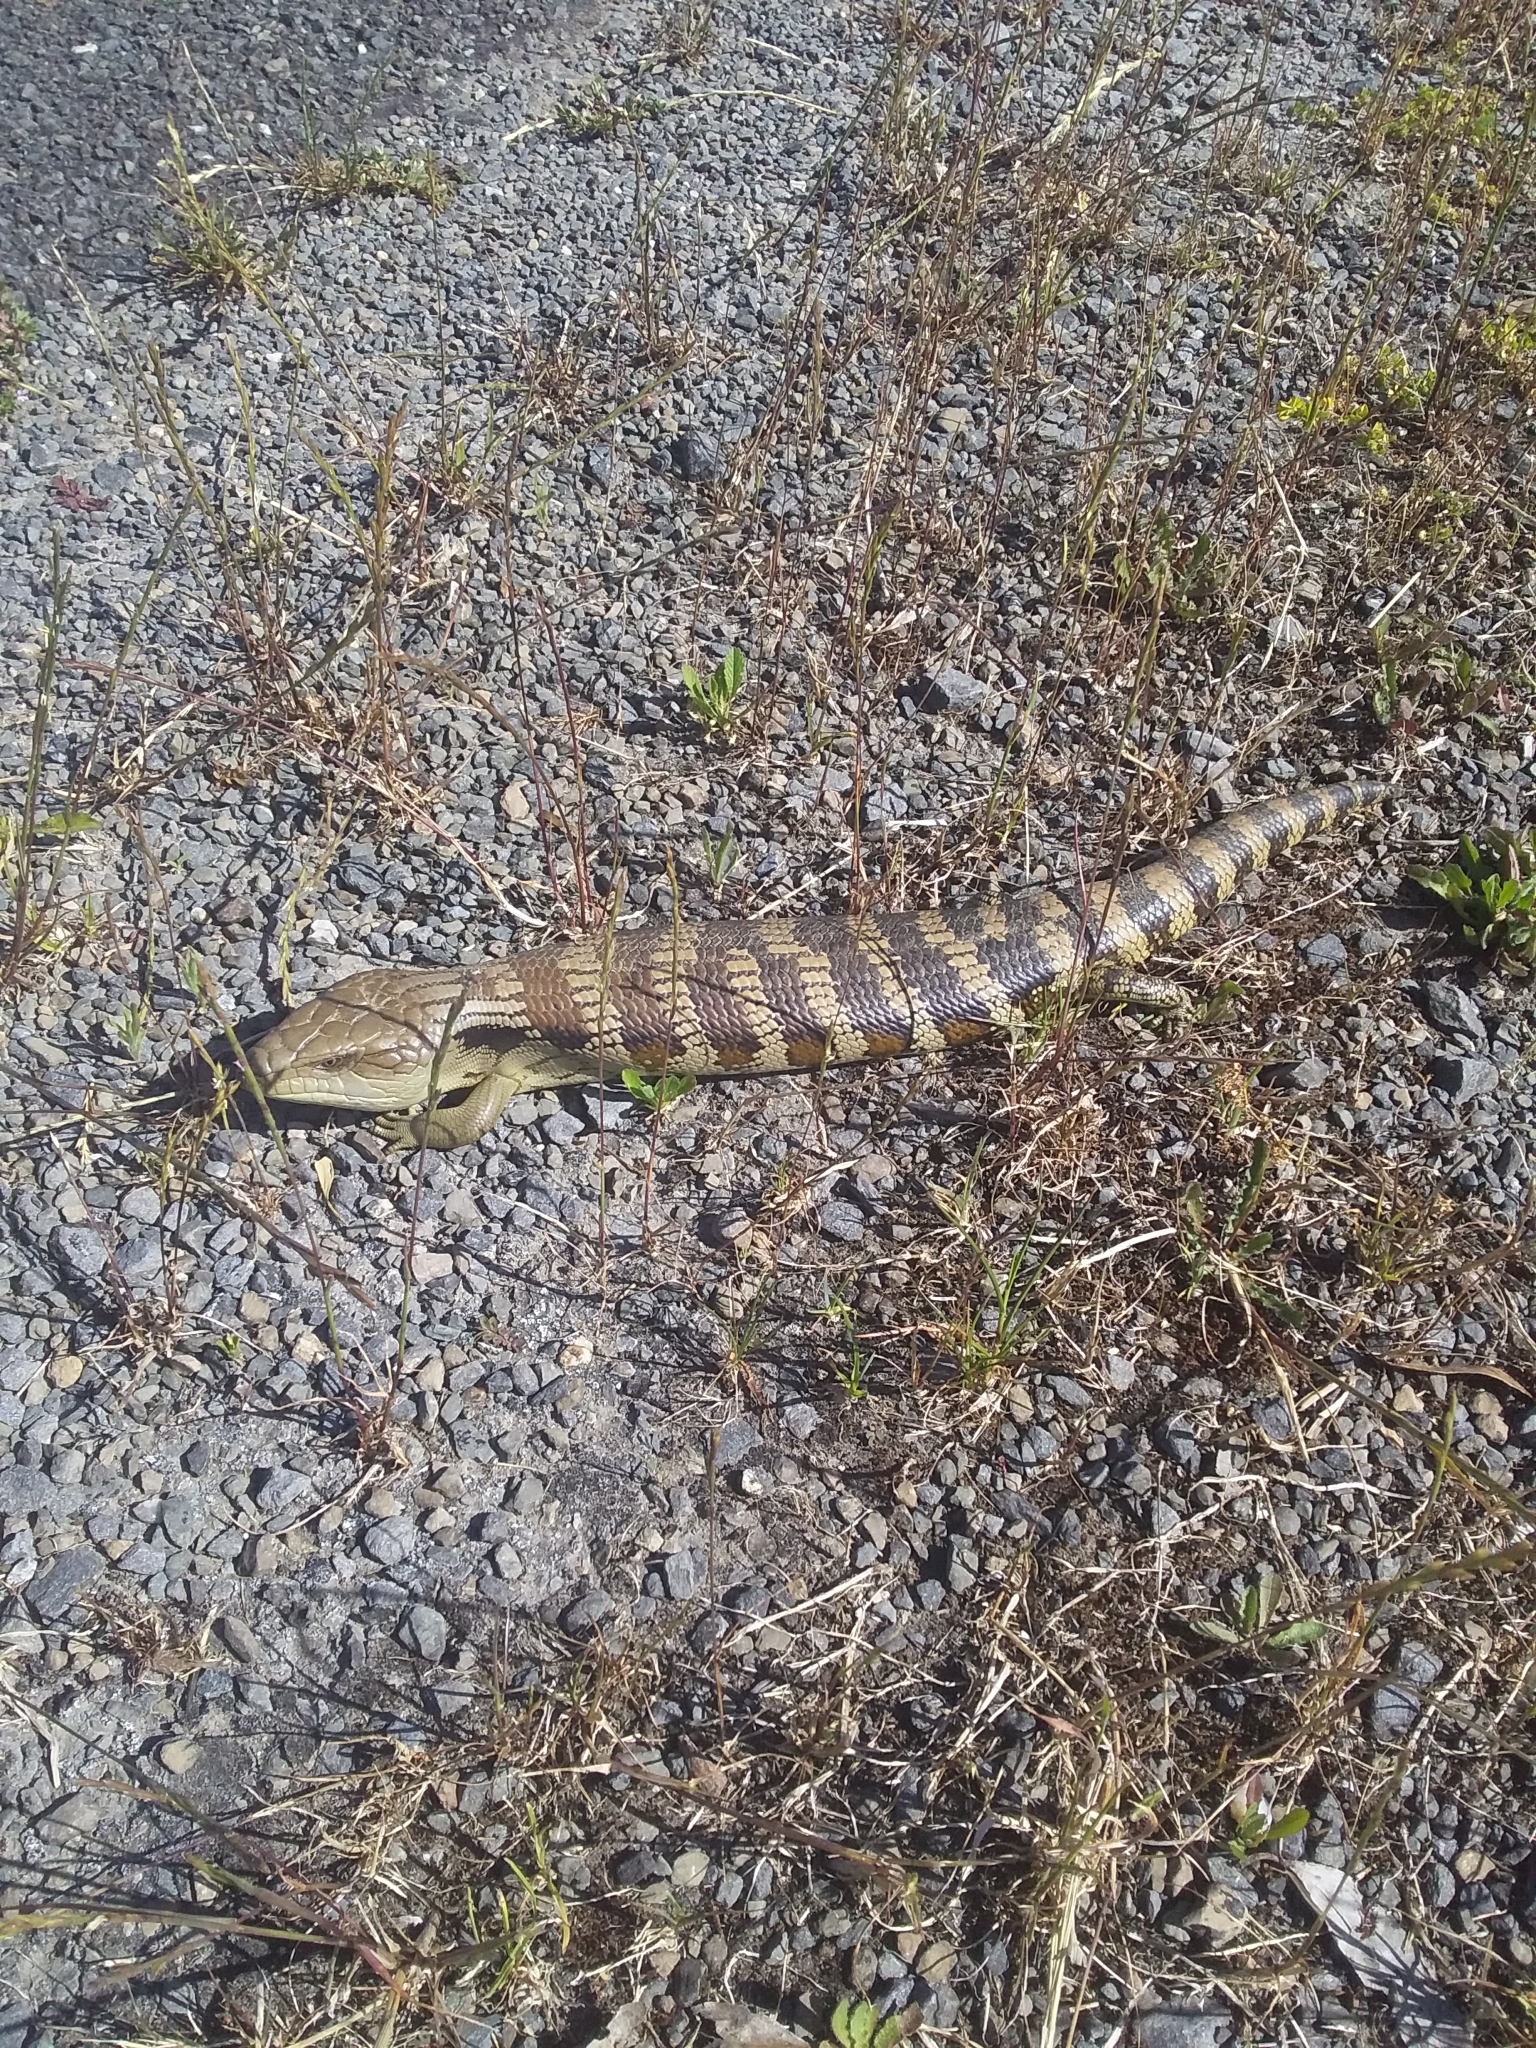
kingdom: Animalia
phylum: Chordata
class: Squamata
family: Scincidae
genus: Tiliqua
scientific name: Tiliqua scincoides
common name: Common bluetongue
